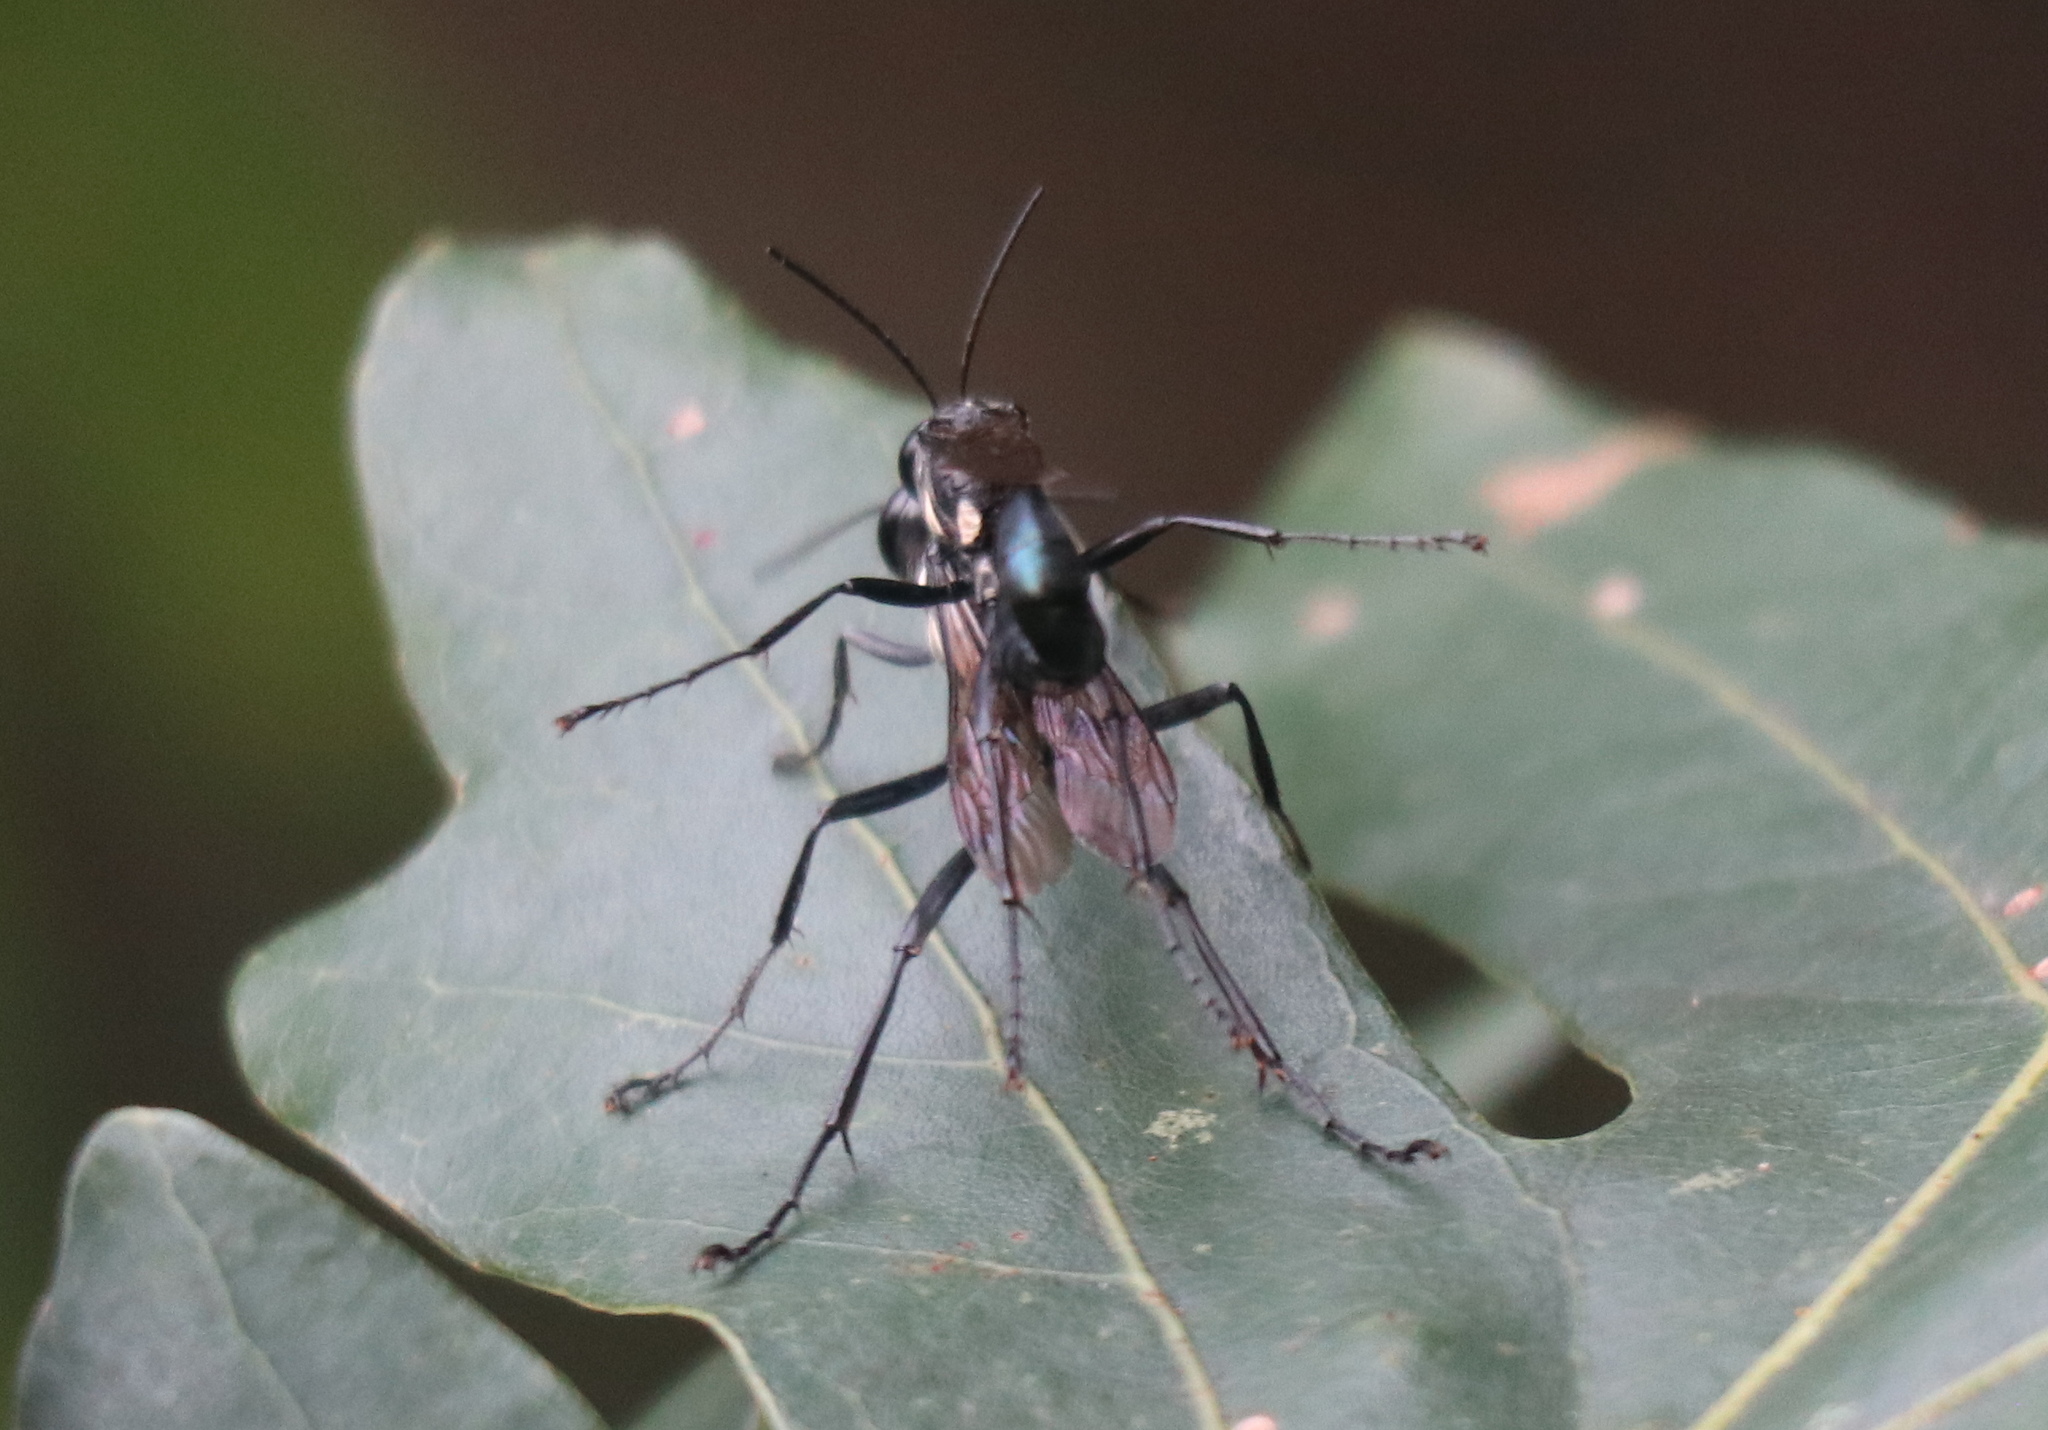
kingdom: Animalia
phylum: Arthropoda
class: Insecta
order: Hymenoptera
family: Sphecidae
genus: Eremnophila
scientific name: Eremnophila aureonotata
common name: Gold-marked thread-waisted wasp
